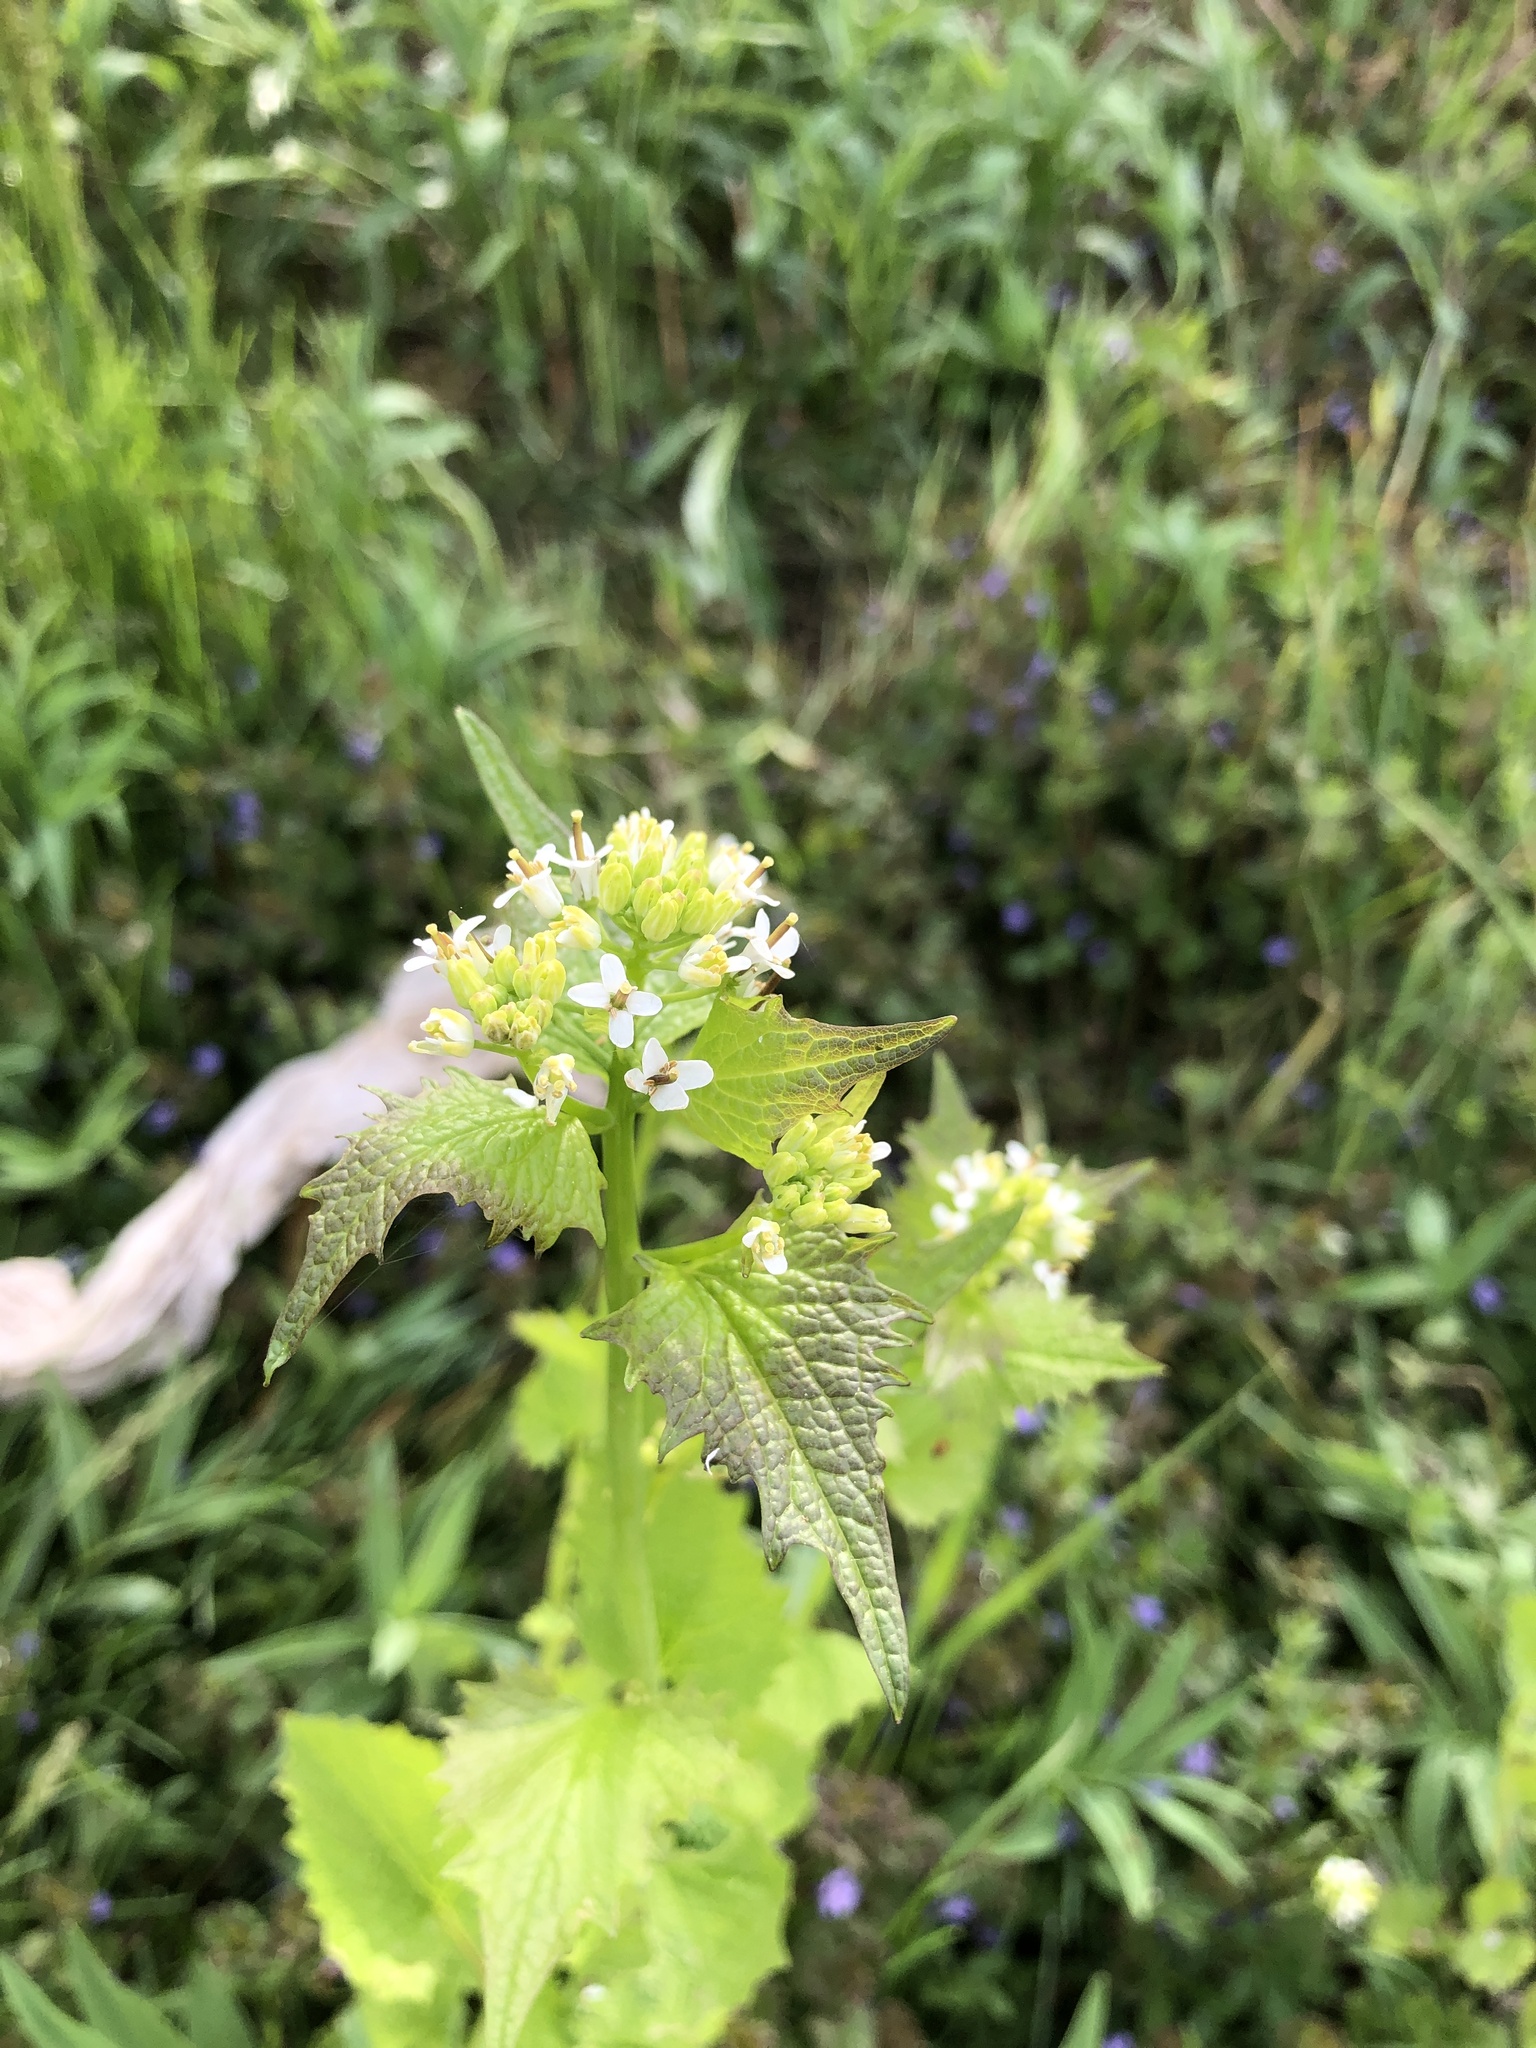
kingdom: Plantae
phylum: Tracheophyta
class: Magnoliopsida
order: Brassicales
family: Brassicaceae
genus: Alliaria
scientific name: Alliaria petiolata
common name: Garlic mustard
